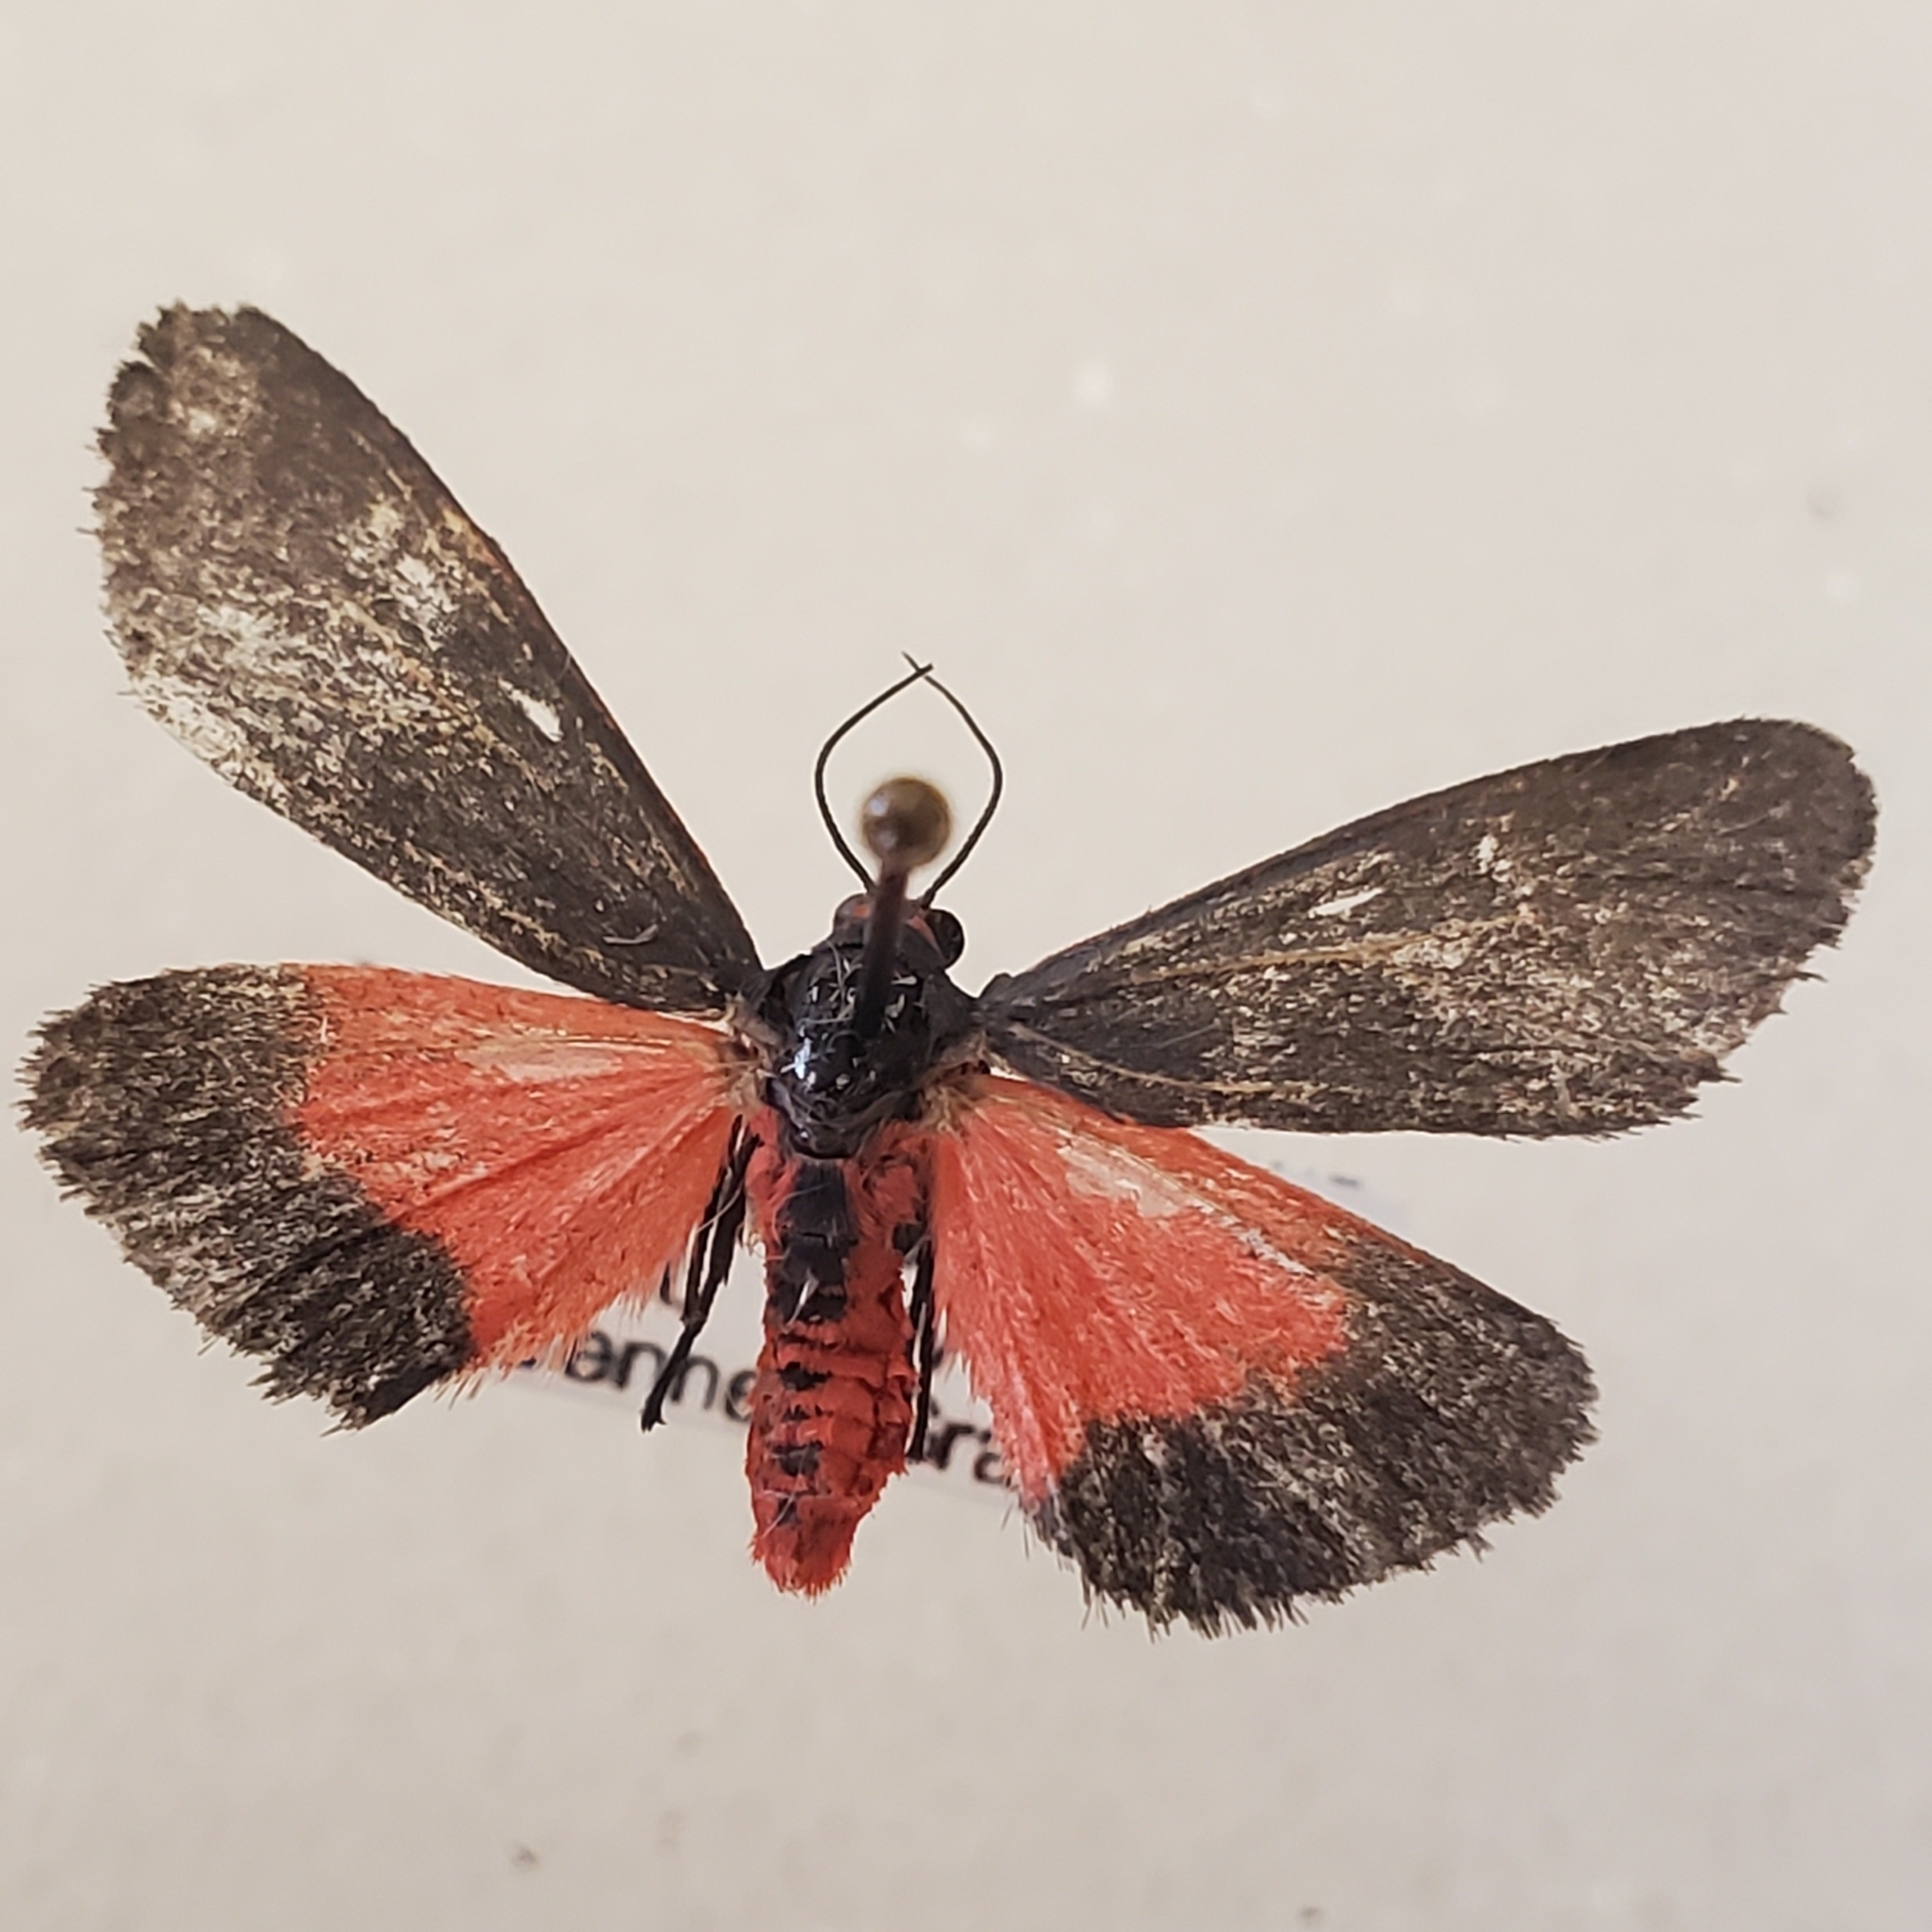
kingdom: Animalia
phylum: Arthropoda
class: Insecta
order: Lepidoptera
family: Erebidae
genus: Virbia
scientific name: Virbia laeta
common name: Joyful holomelina moth
